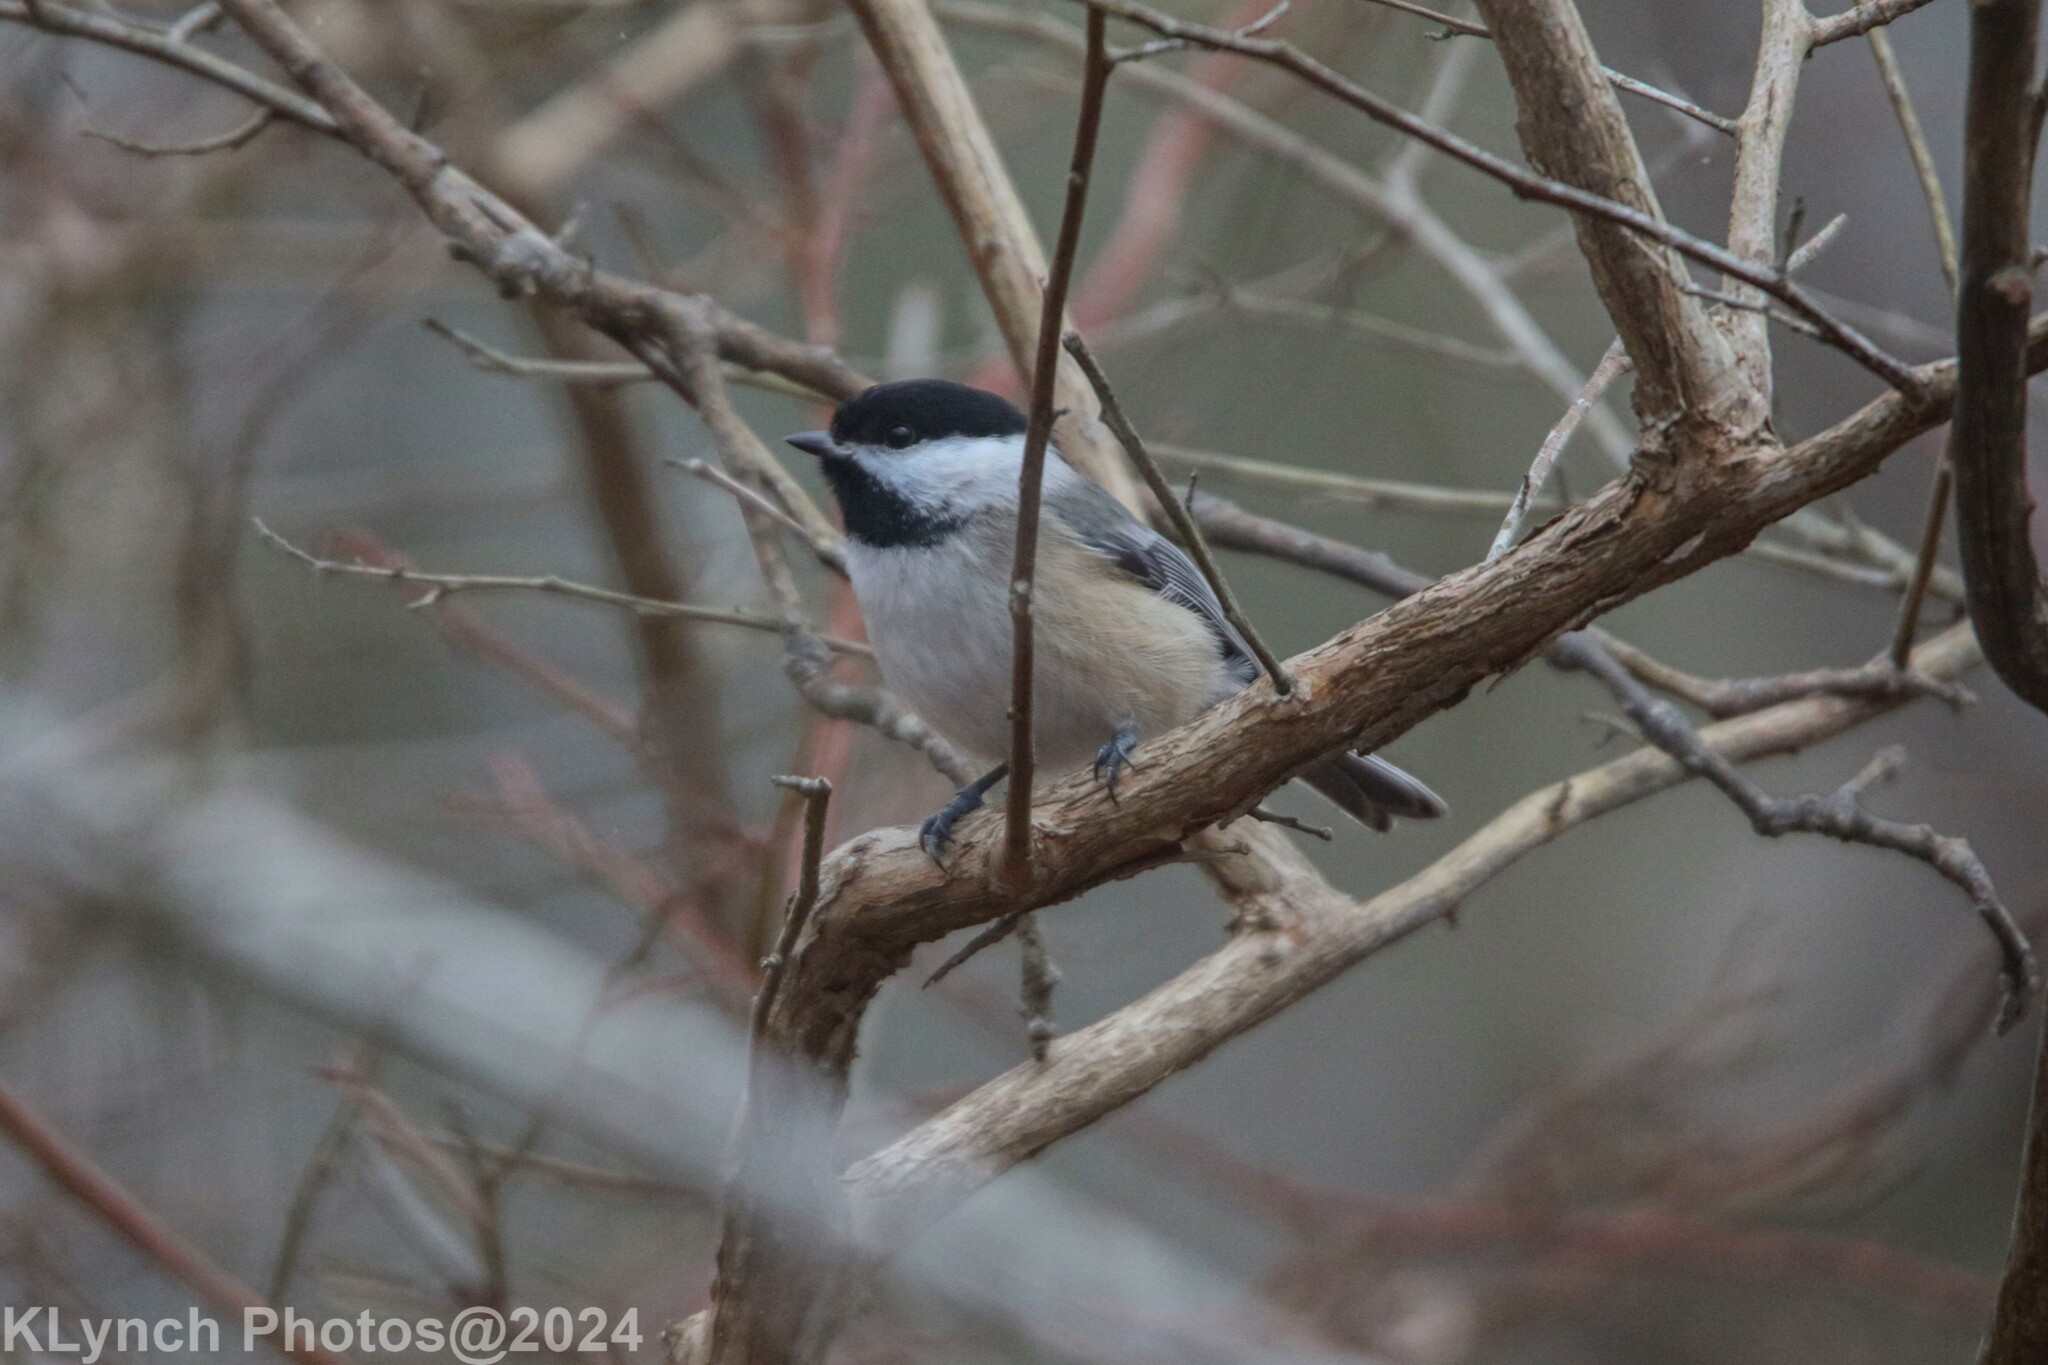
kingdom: Animalia
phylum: Chordata
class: Aves
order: Passeriformes
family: Paridae
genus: Poecile
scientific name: Poecile atricapillus
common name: Black-capped chickadee
